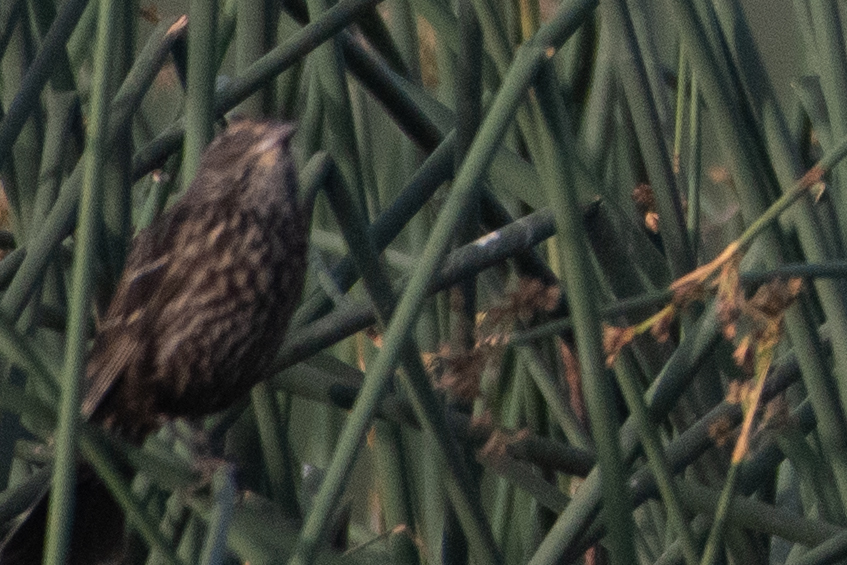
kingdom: Animalia
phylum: Chordata
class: Aves
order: Passeriformes
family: Icteridae
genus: Agelaius
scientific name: Agelaius phoeniceus
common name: Red-winged blackbird
